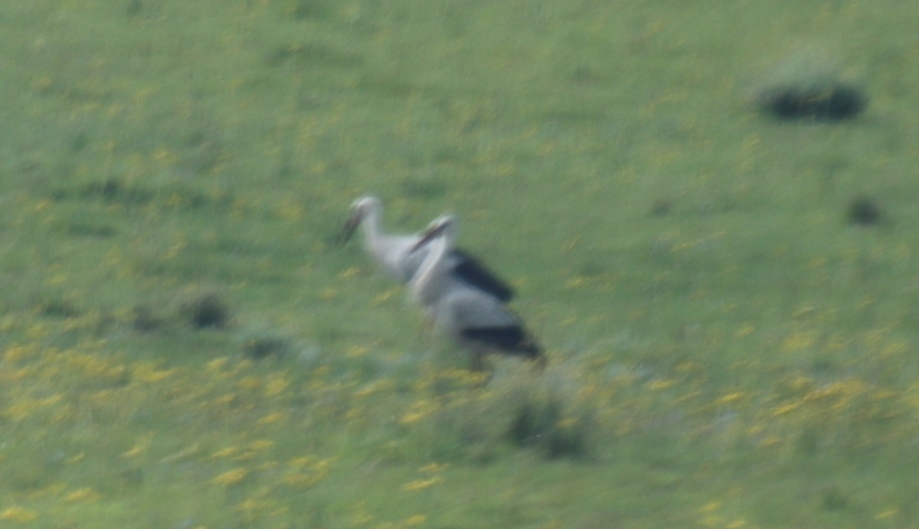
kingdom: Animalia
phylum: Chordata
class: Aves
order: Ciconiiformes
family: Ciconiidae
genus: Ciconia
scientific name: Ciconia ciconia
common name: White stork
